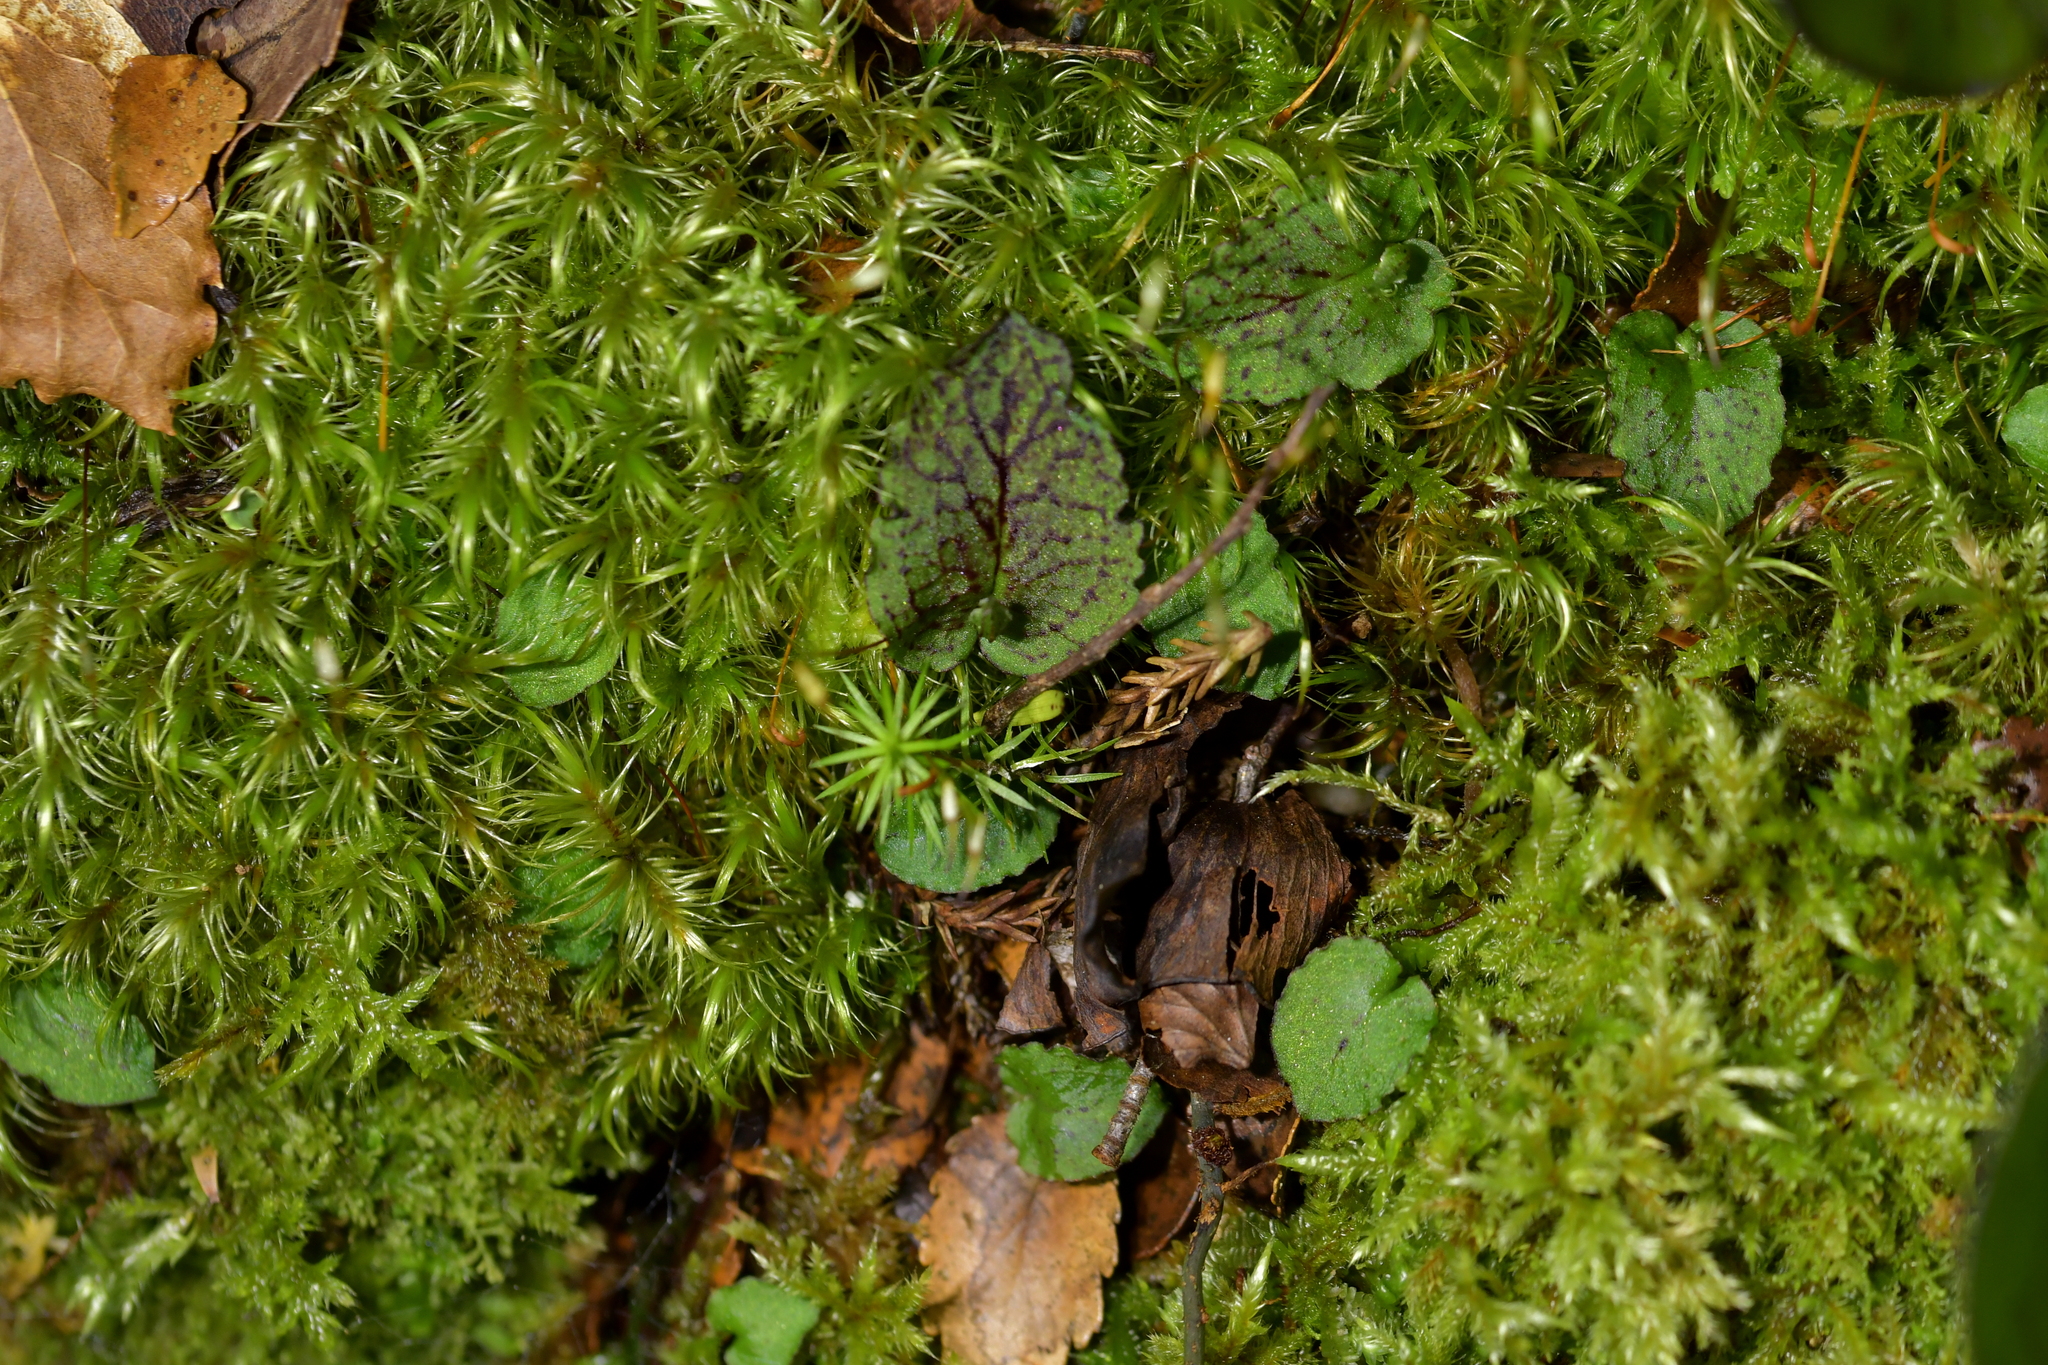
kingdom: Plantae
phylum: Tracheophyta
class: Liliopsida
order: Asparagales
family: Orchidaceae
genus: Corybas
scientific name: Corybas oblongus
